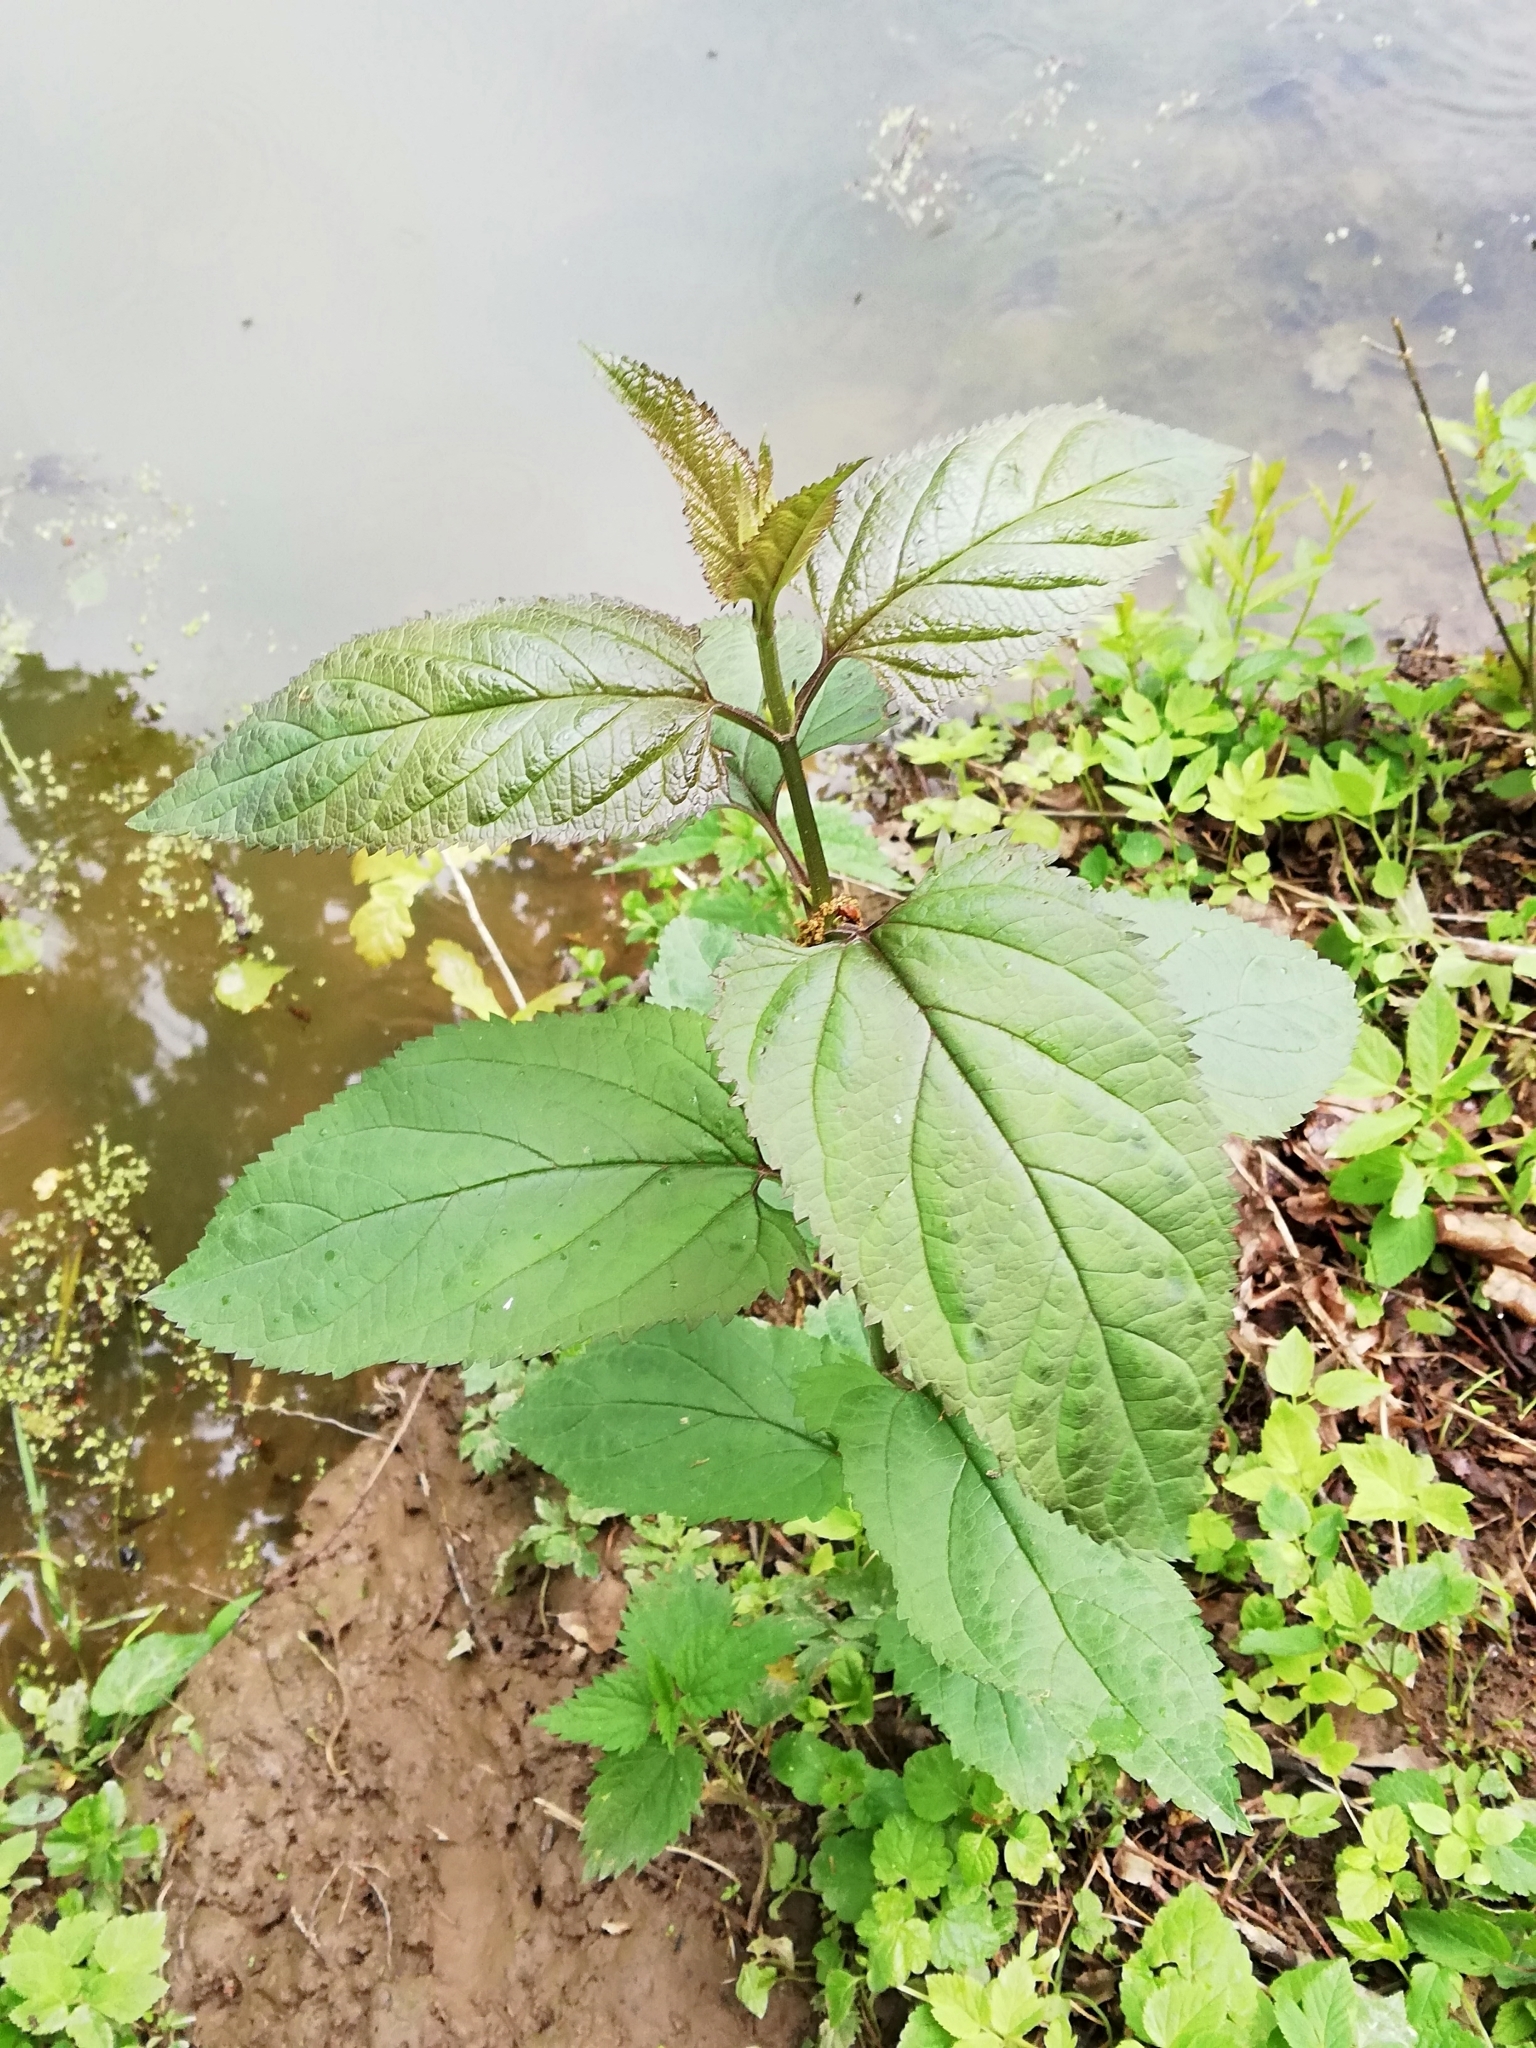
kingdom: Plantae
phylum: Tracheophyta
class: Magnoliopsida
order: Lamiales
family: Scrophulariaceae
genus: Scrophularia
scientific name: Scrophularia nodosa
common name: Common figwort
